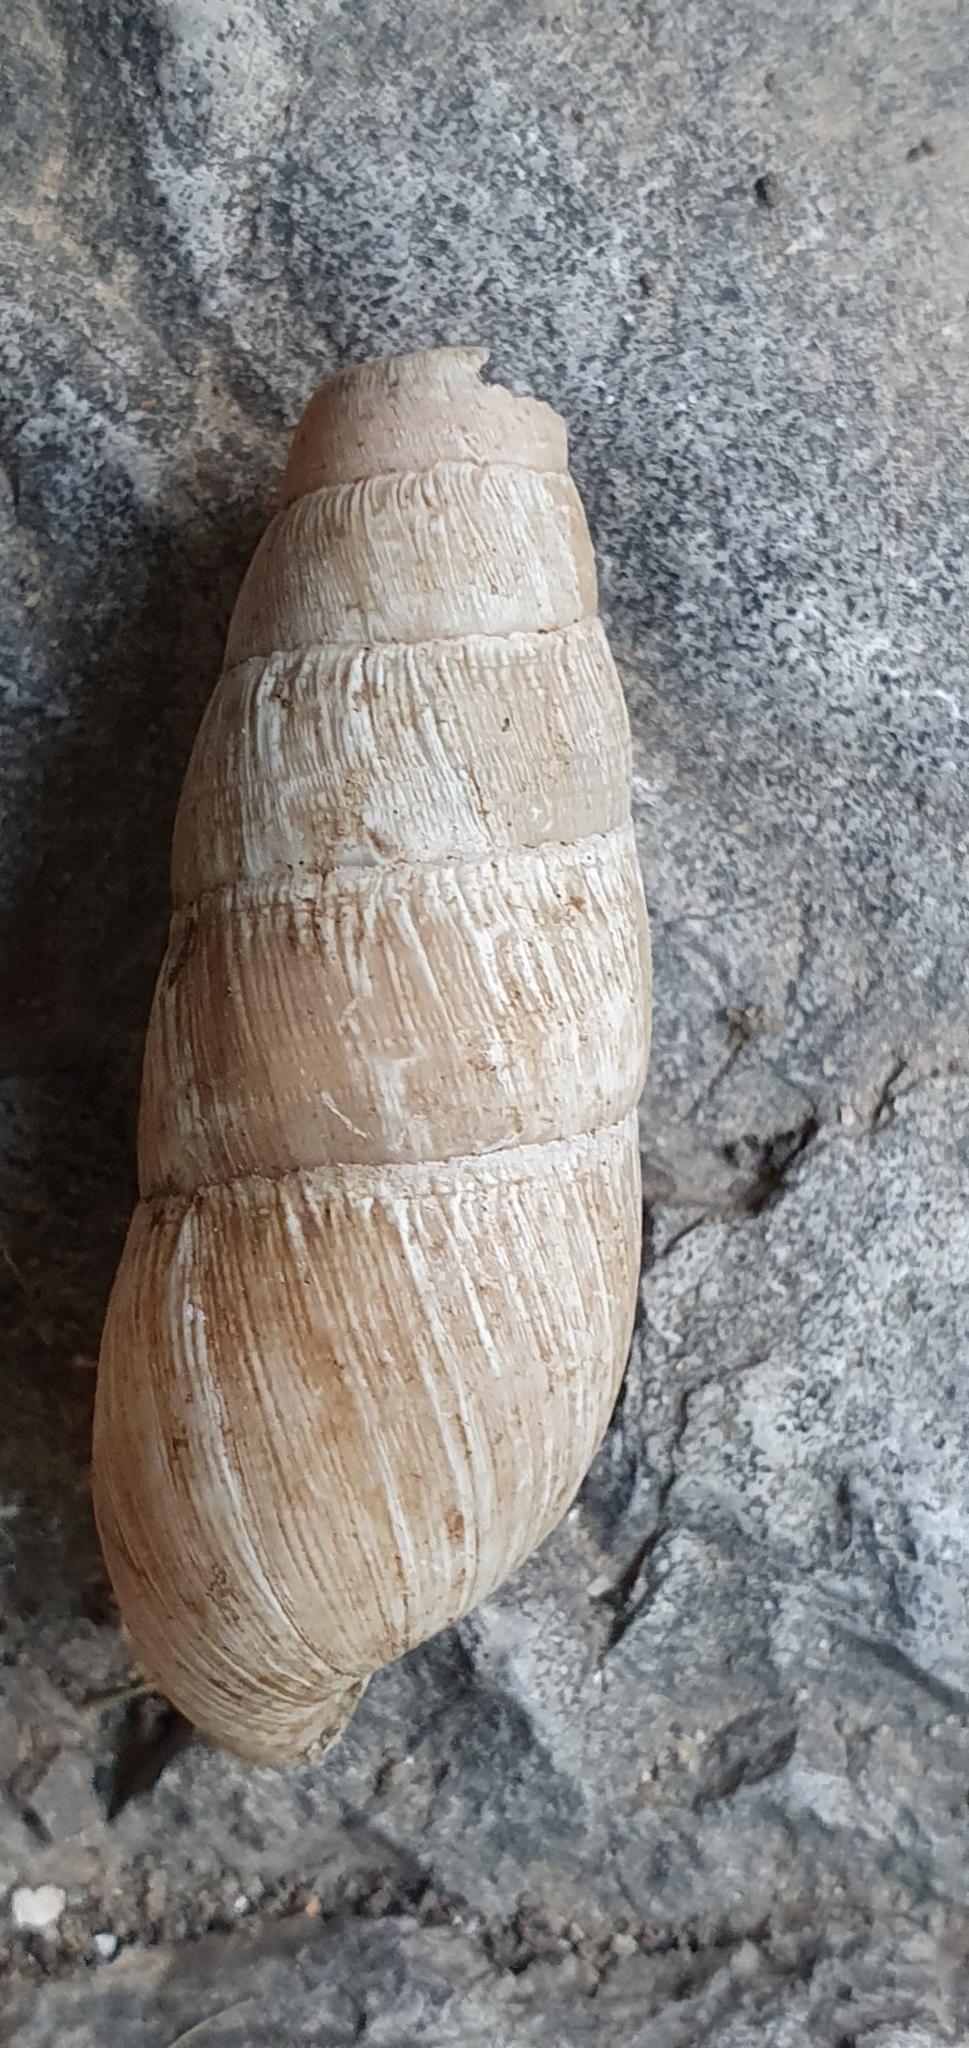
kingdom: Animalia
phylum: Mollusca
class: Gastropoda
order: Stylommatophora
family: Achatinidae
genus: Rumina
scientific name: Rumina decollata
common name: Decollate snail
